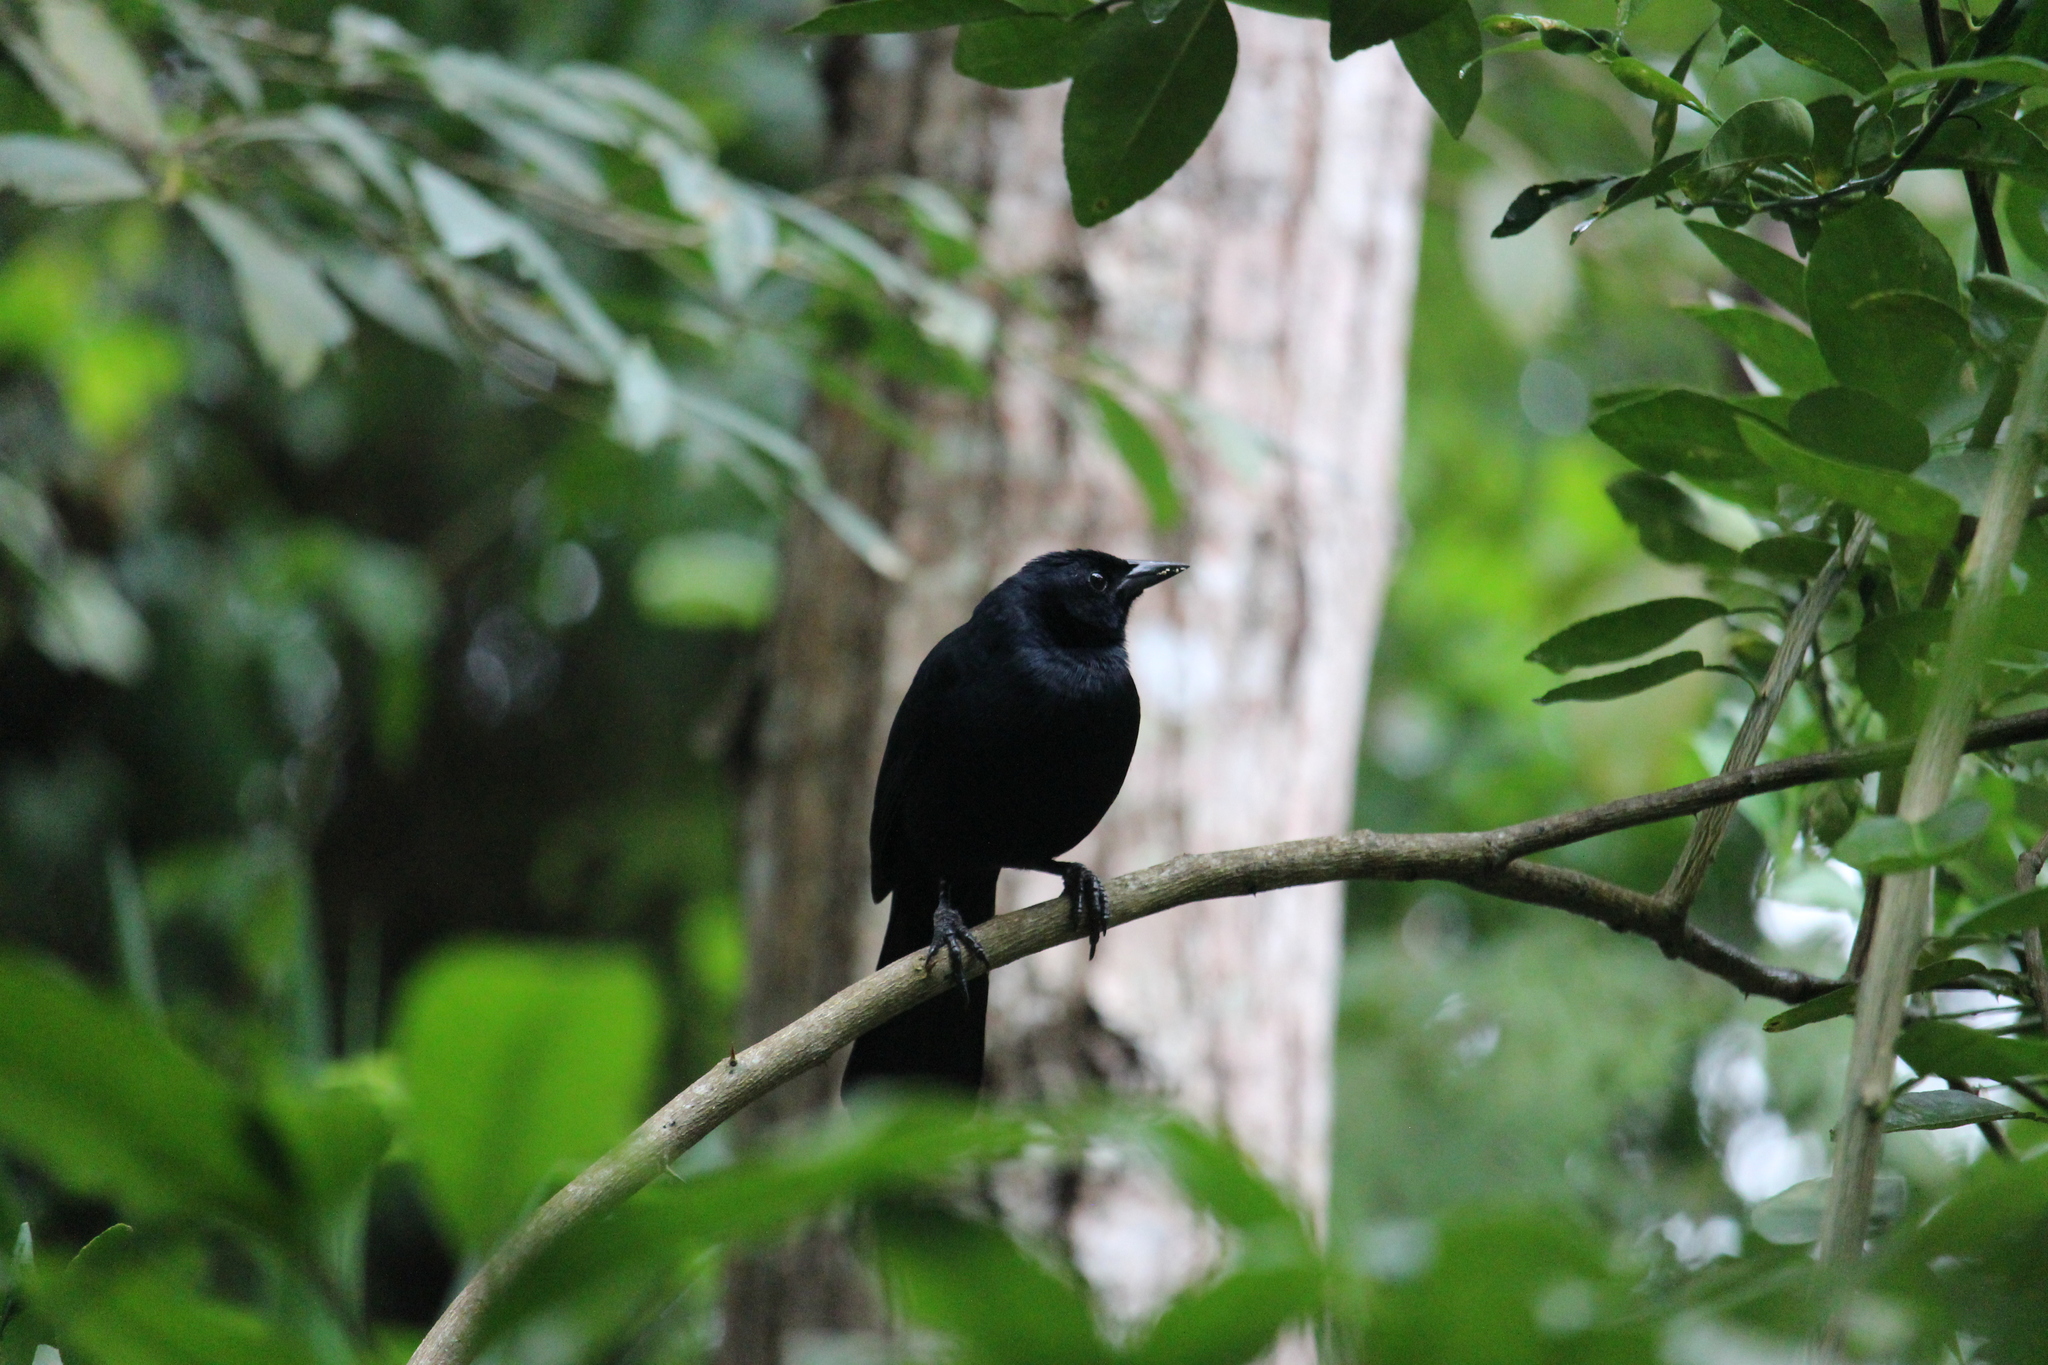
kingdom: Animalia
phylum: Chordata
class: Aves
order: Passeriformes
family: Icteridae
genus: Dives
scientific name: Dives dives
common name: Melodious blackbird
